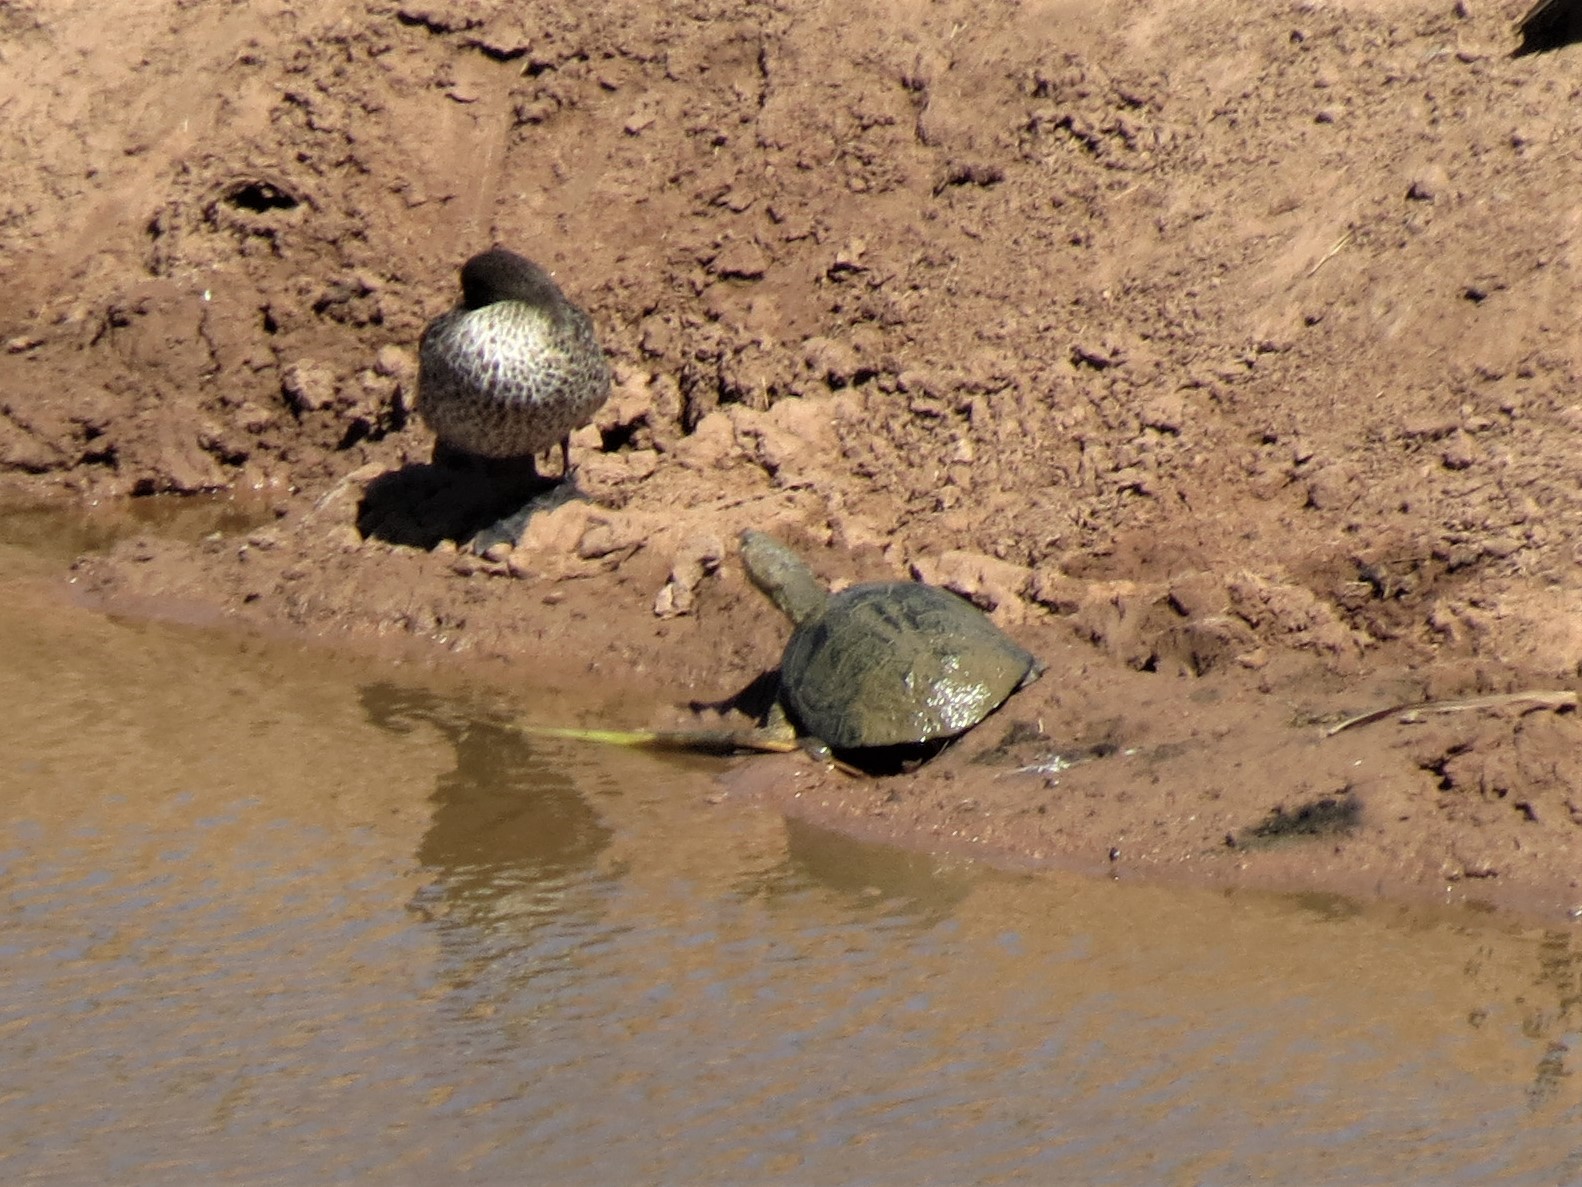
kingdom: Animalia
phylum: Chordata
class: Testudines
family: Pelomedusidae
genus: Pelomedusa
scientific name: Pelomedusa galeata
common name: South african helmeted terrapin
